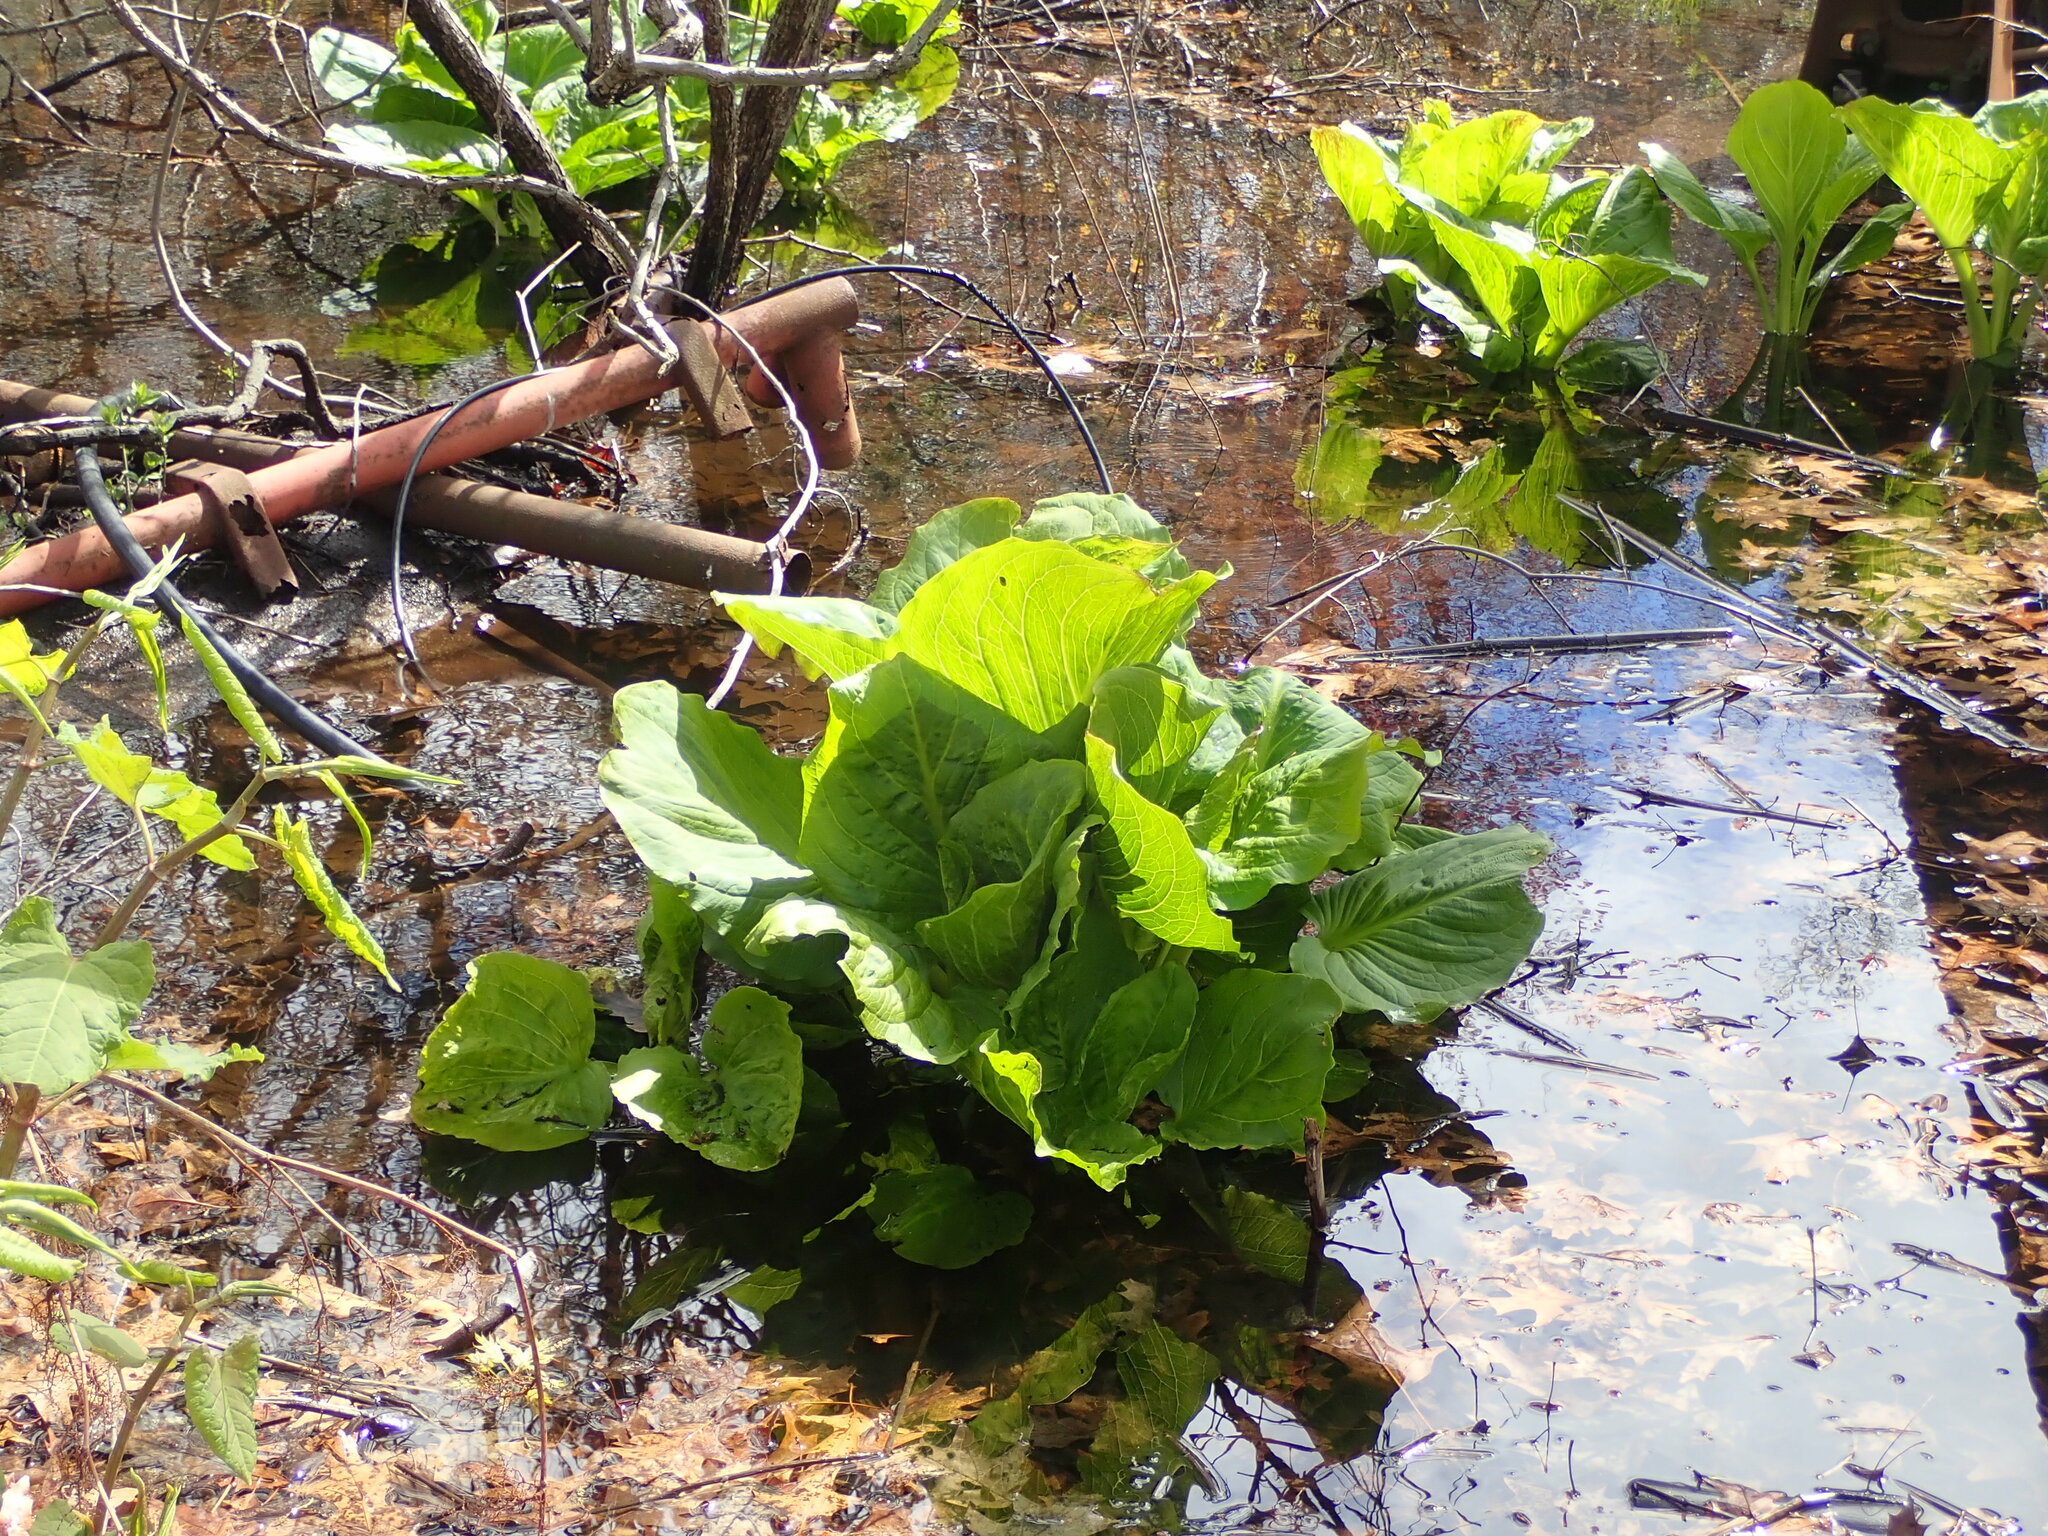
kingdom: Plantae
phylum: Tracheophyta
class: Liliopsida
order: Alismatales
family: Araceae
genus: Symplocarpus
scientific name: Symplocarpus foetidus
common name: Eastern skunk cabbage
